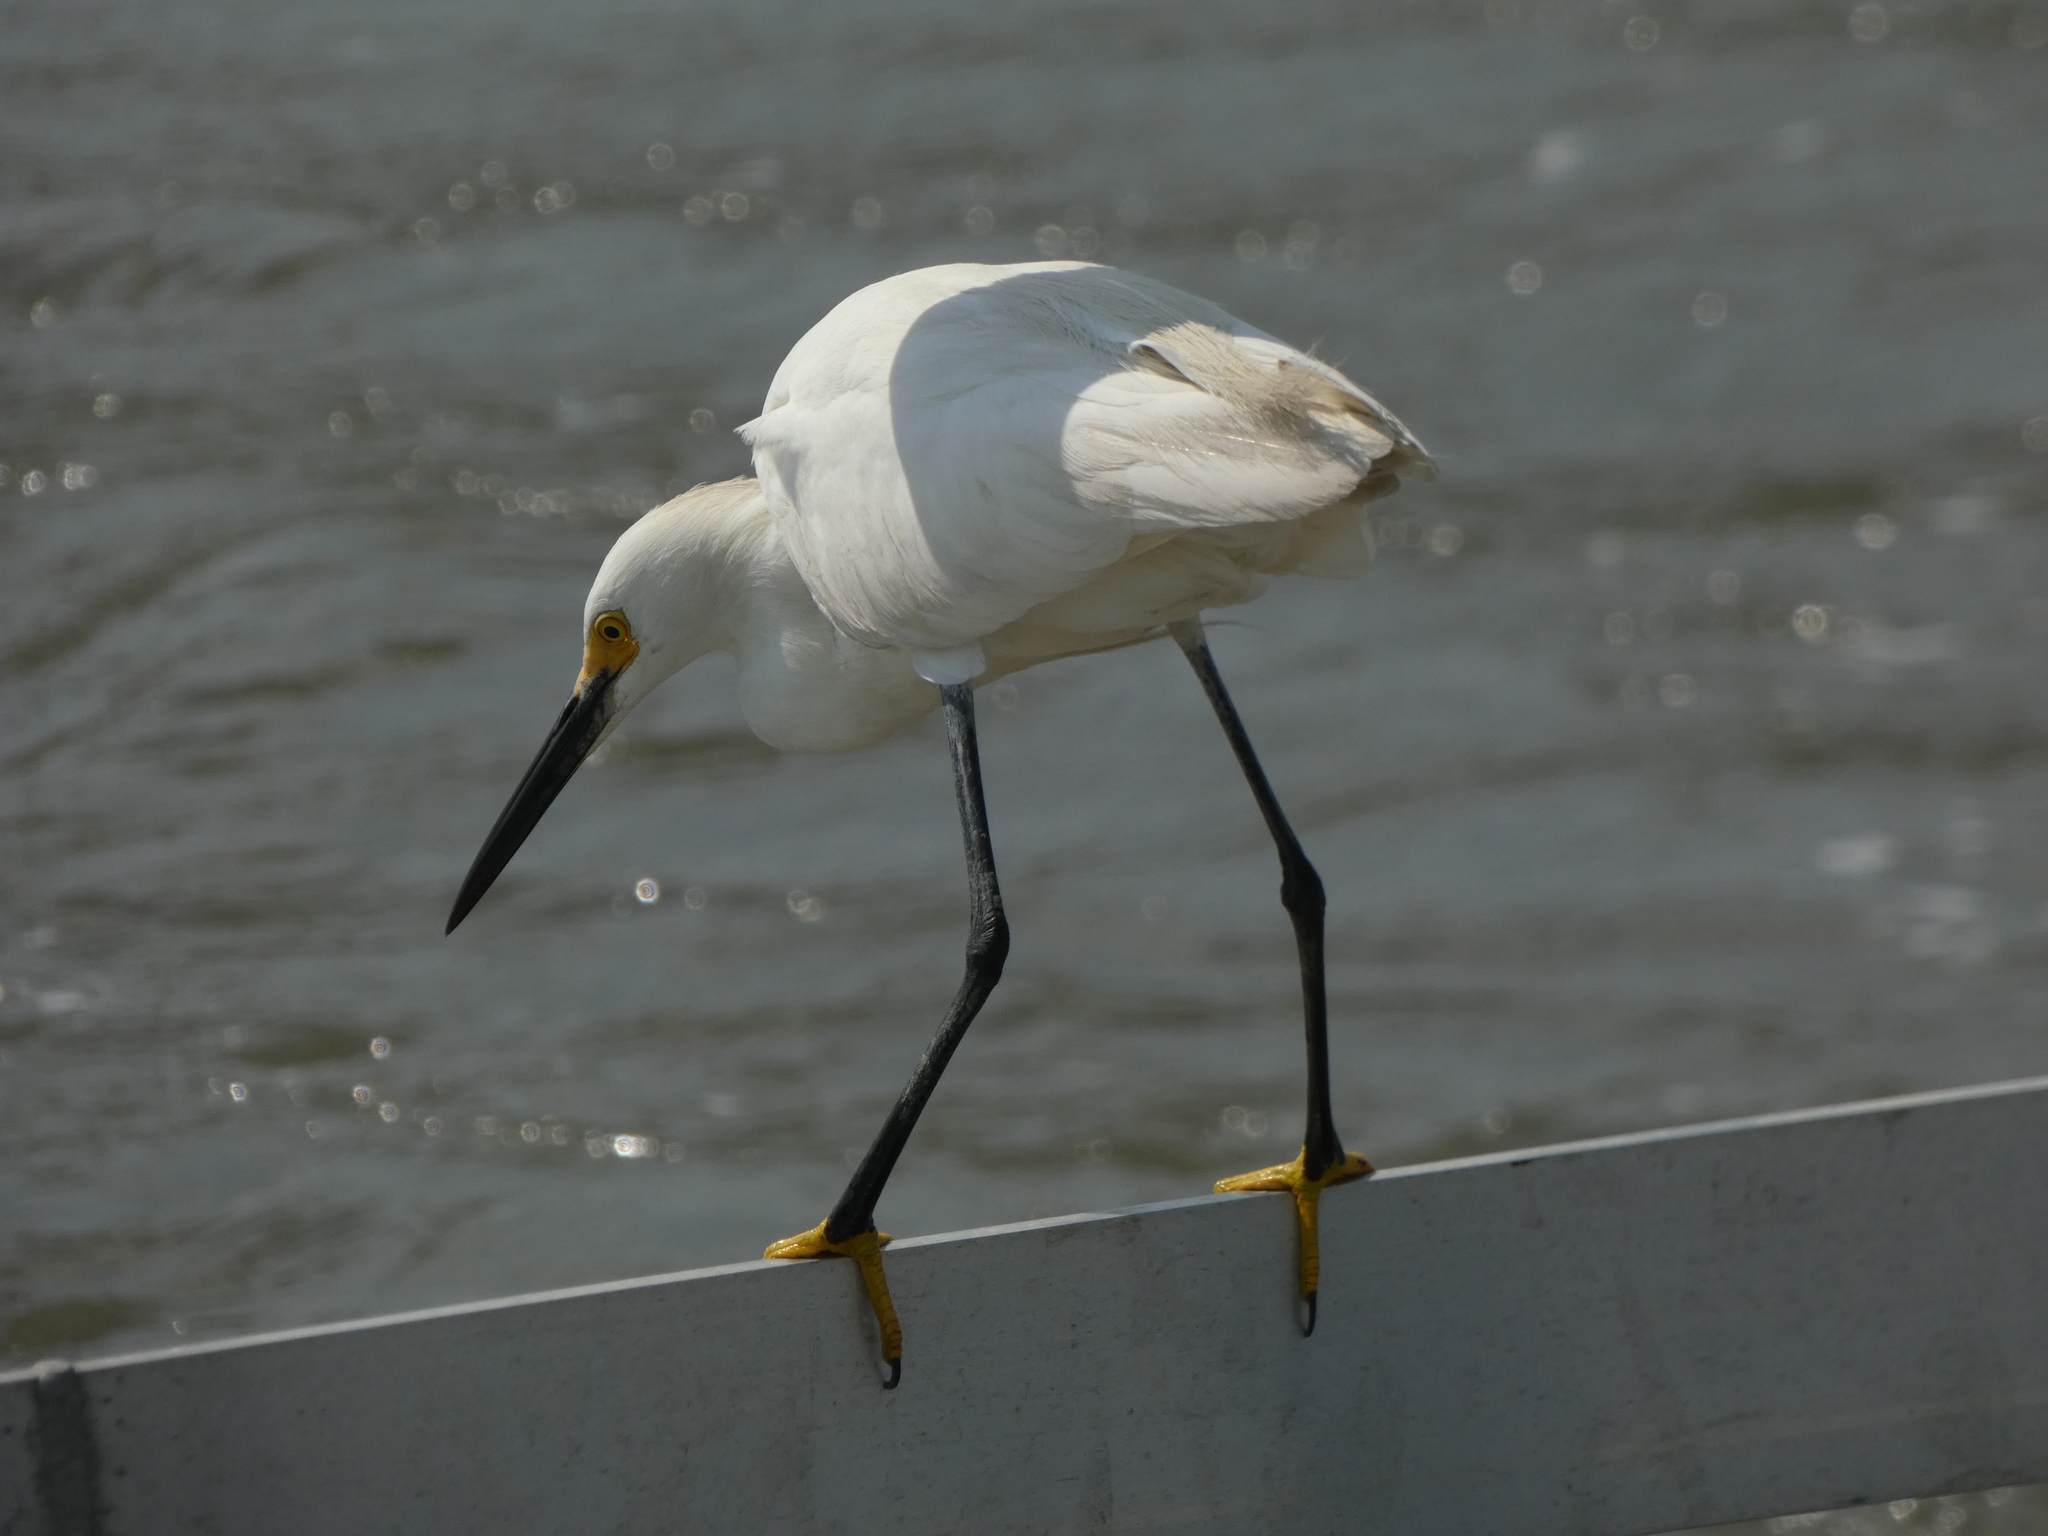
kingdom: Animalia
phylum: Chordata
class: Aves
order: Pelecaniformes
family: Ardeidae
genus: Egretta
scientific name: Egretta thula
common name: Snowy egret
